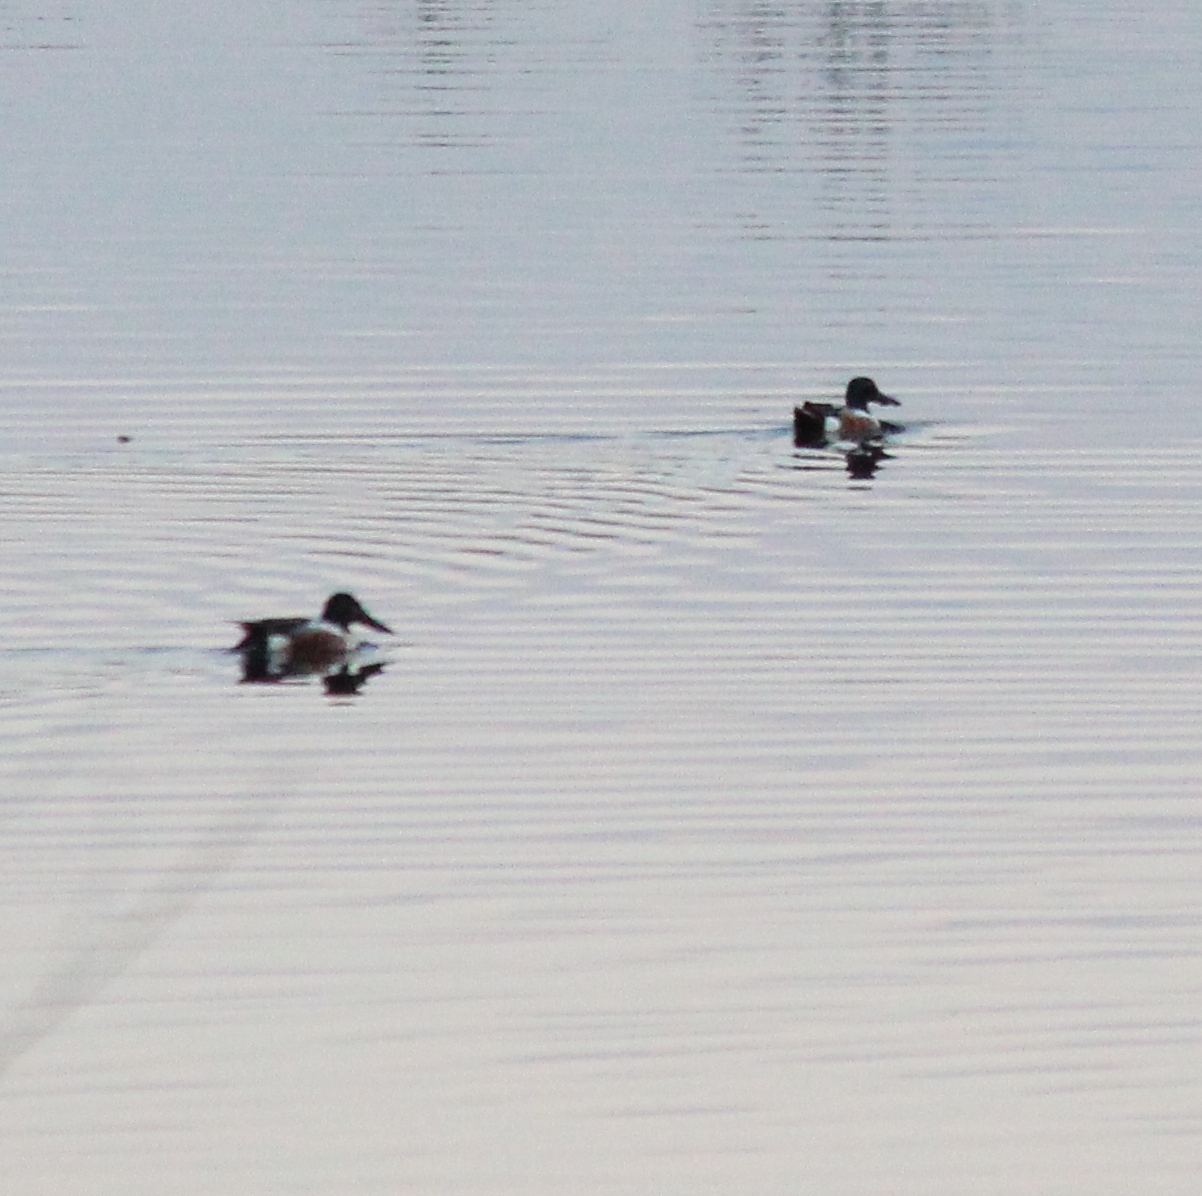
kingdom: Animalia
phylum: Chordata
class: Aves
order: Anseriformes
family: Anatidae
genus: Spatula
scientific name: Spatula clypeata
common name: Northern shoveler
